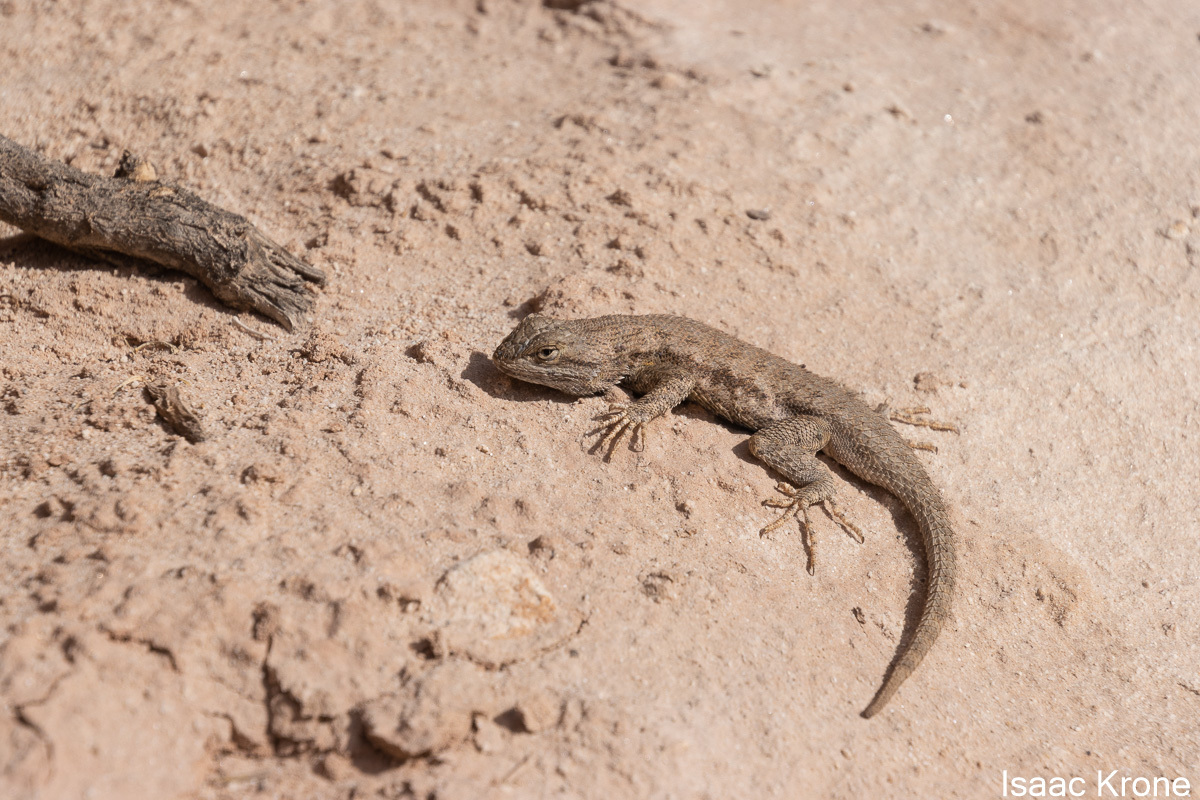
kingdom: Animalia
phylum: Chordata
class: Squamata
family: Phrynosomatidae
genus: Sceloporus
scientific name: Sceloporus tristichus
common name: Plateau fence lizard
